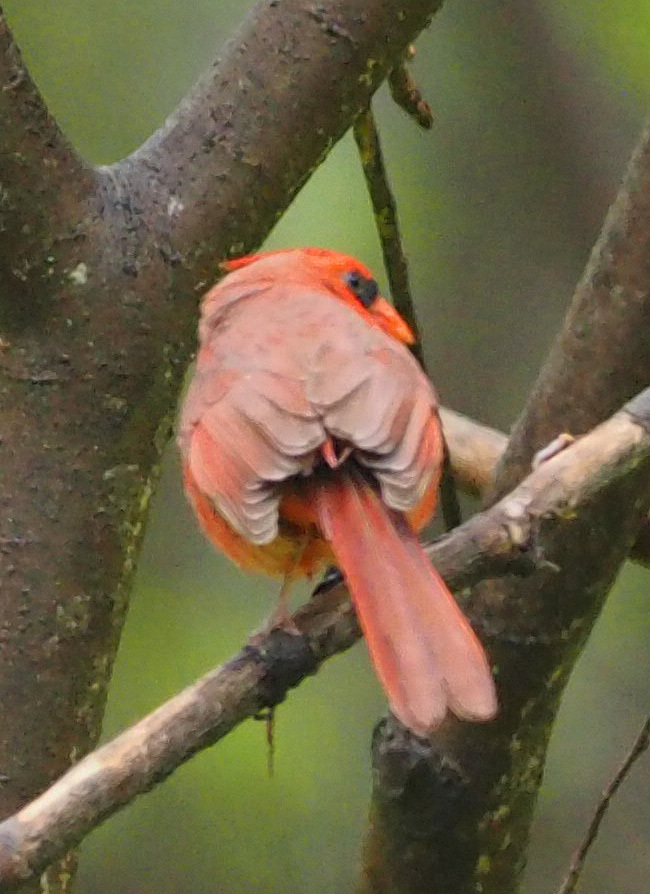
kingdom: Animalia
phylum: Chordata
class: Aves
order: Passeriformes
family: Cardinalidae
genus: Cardinalis
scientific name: Cardinalis cardinalis
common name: Northern cardinal
